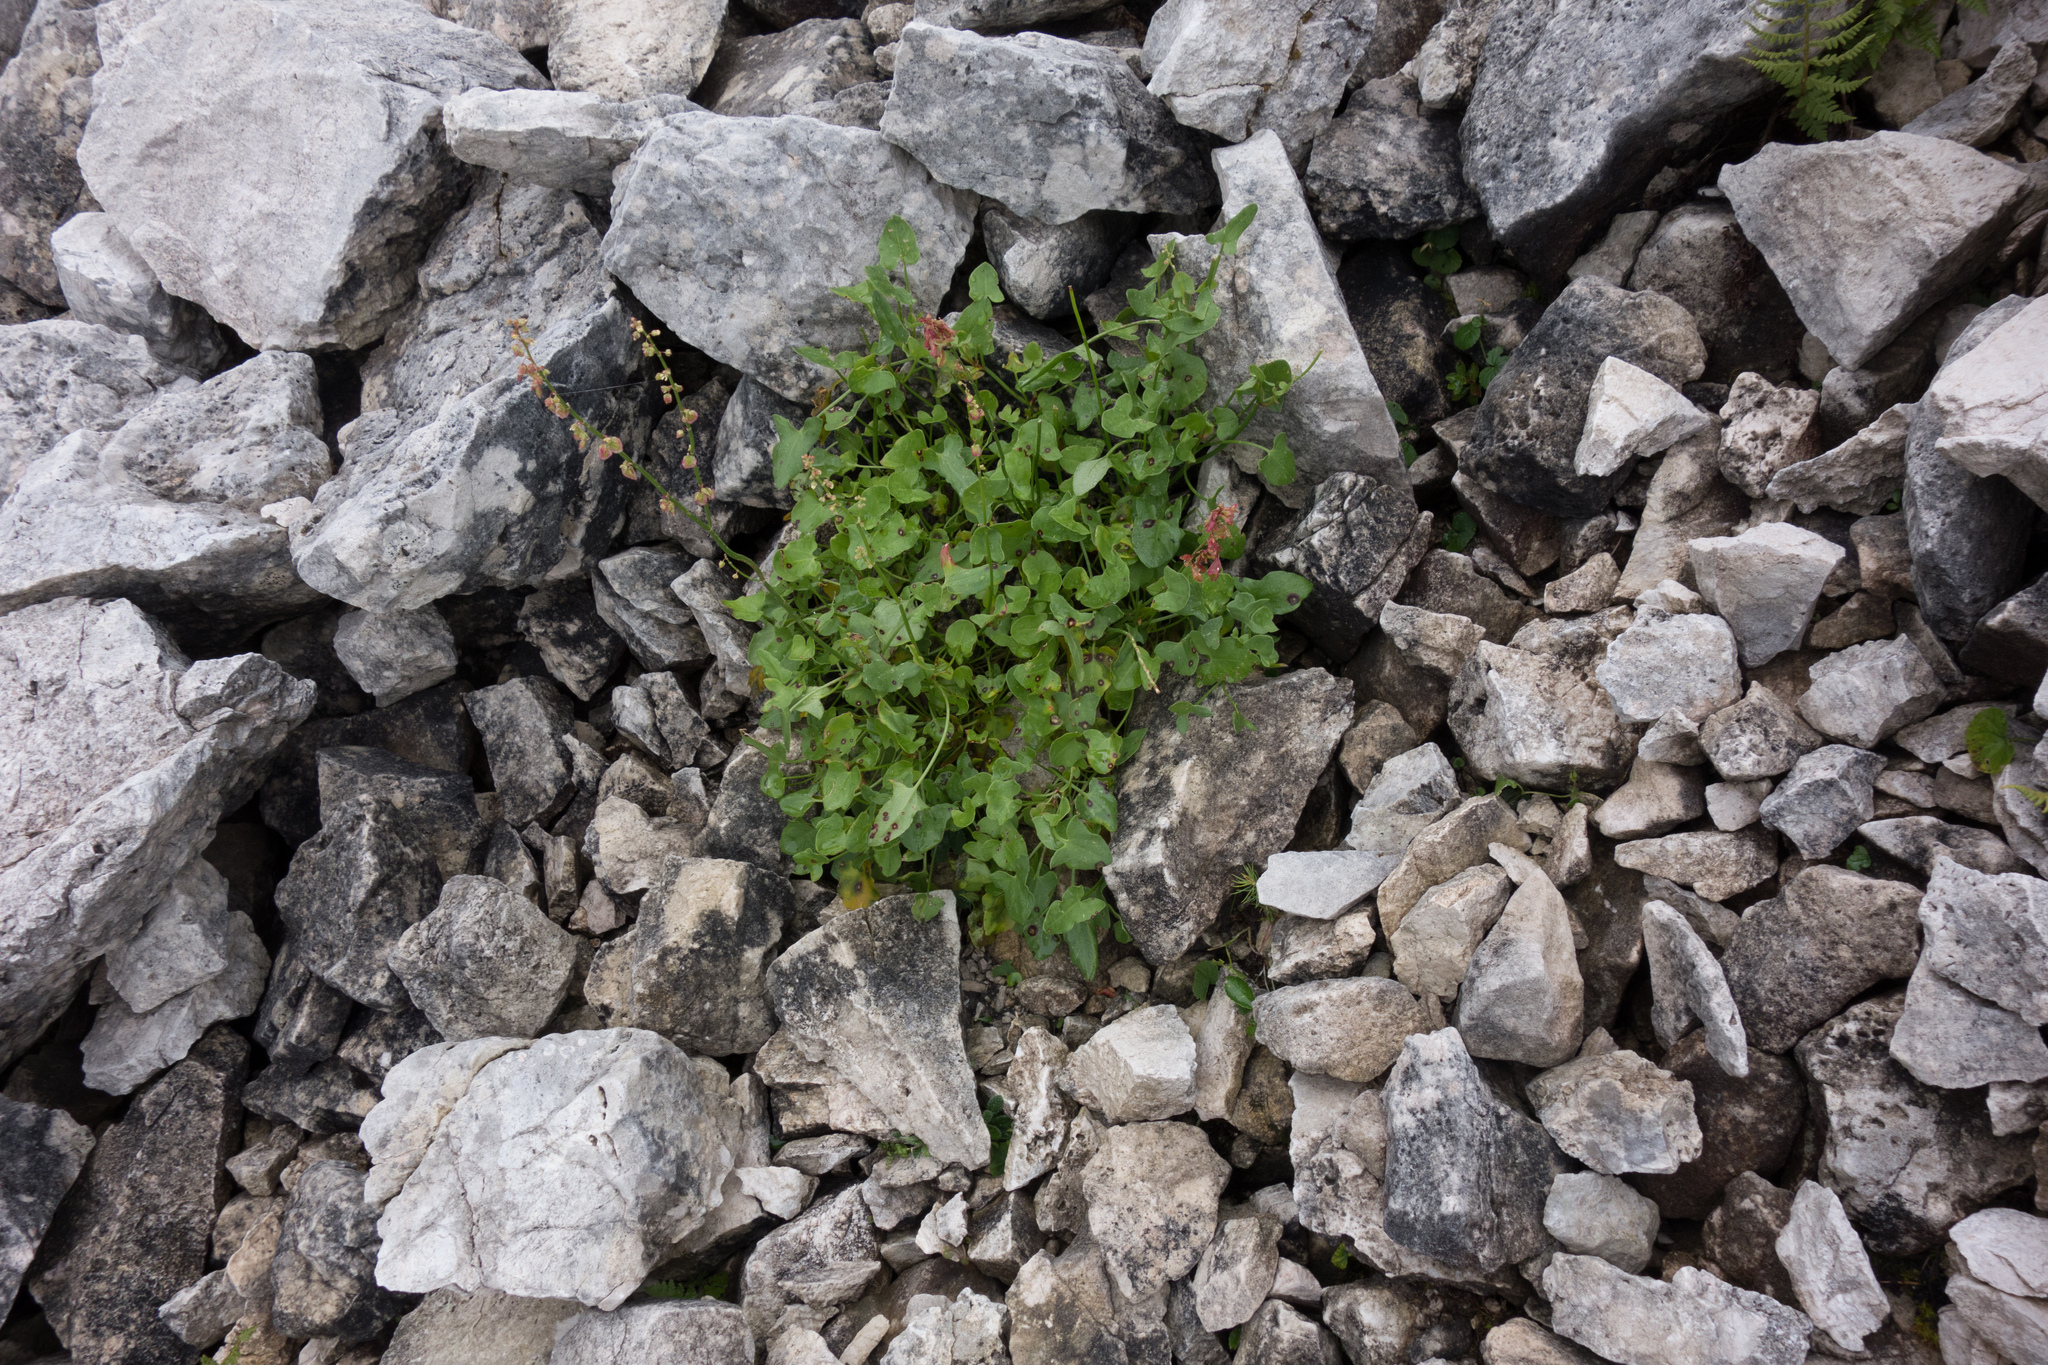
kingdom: Plantae
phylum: Tracheophyta
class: Magnoliopsida
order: Caryophyllales
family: Polygonaceae
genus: Oxyria
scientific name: Oxyria digyna
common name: Alpine mountain-sorrel
